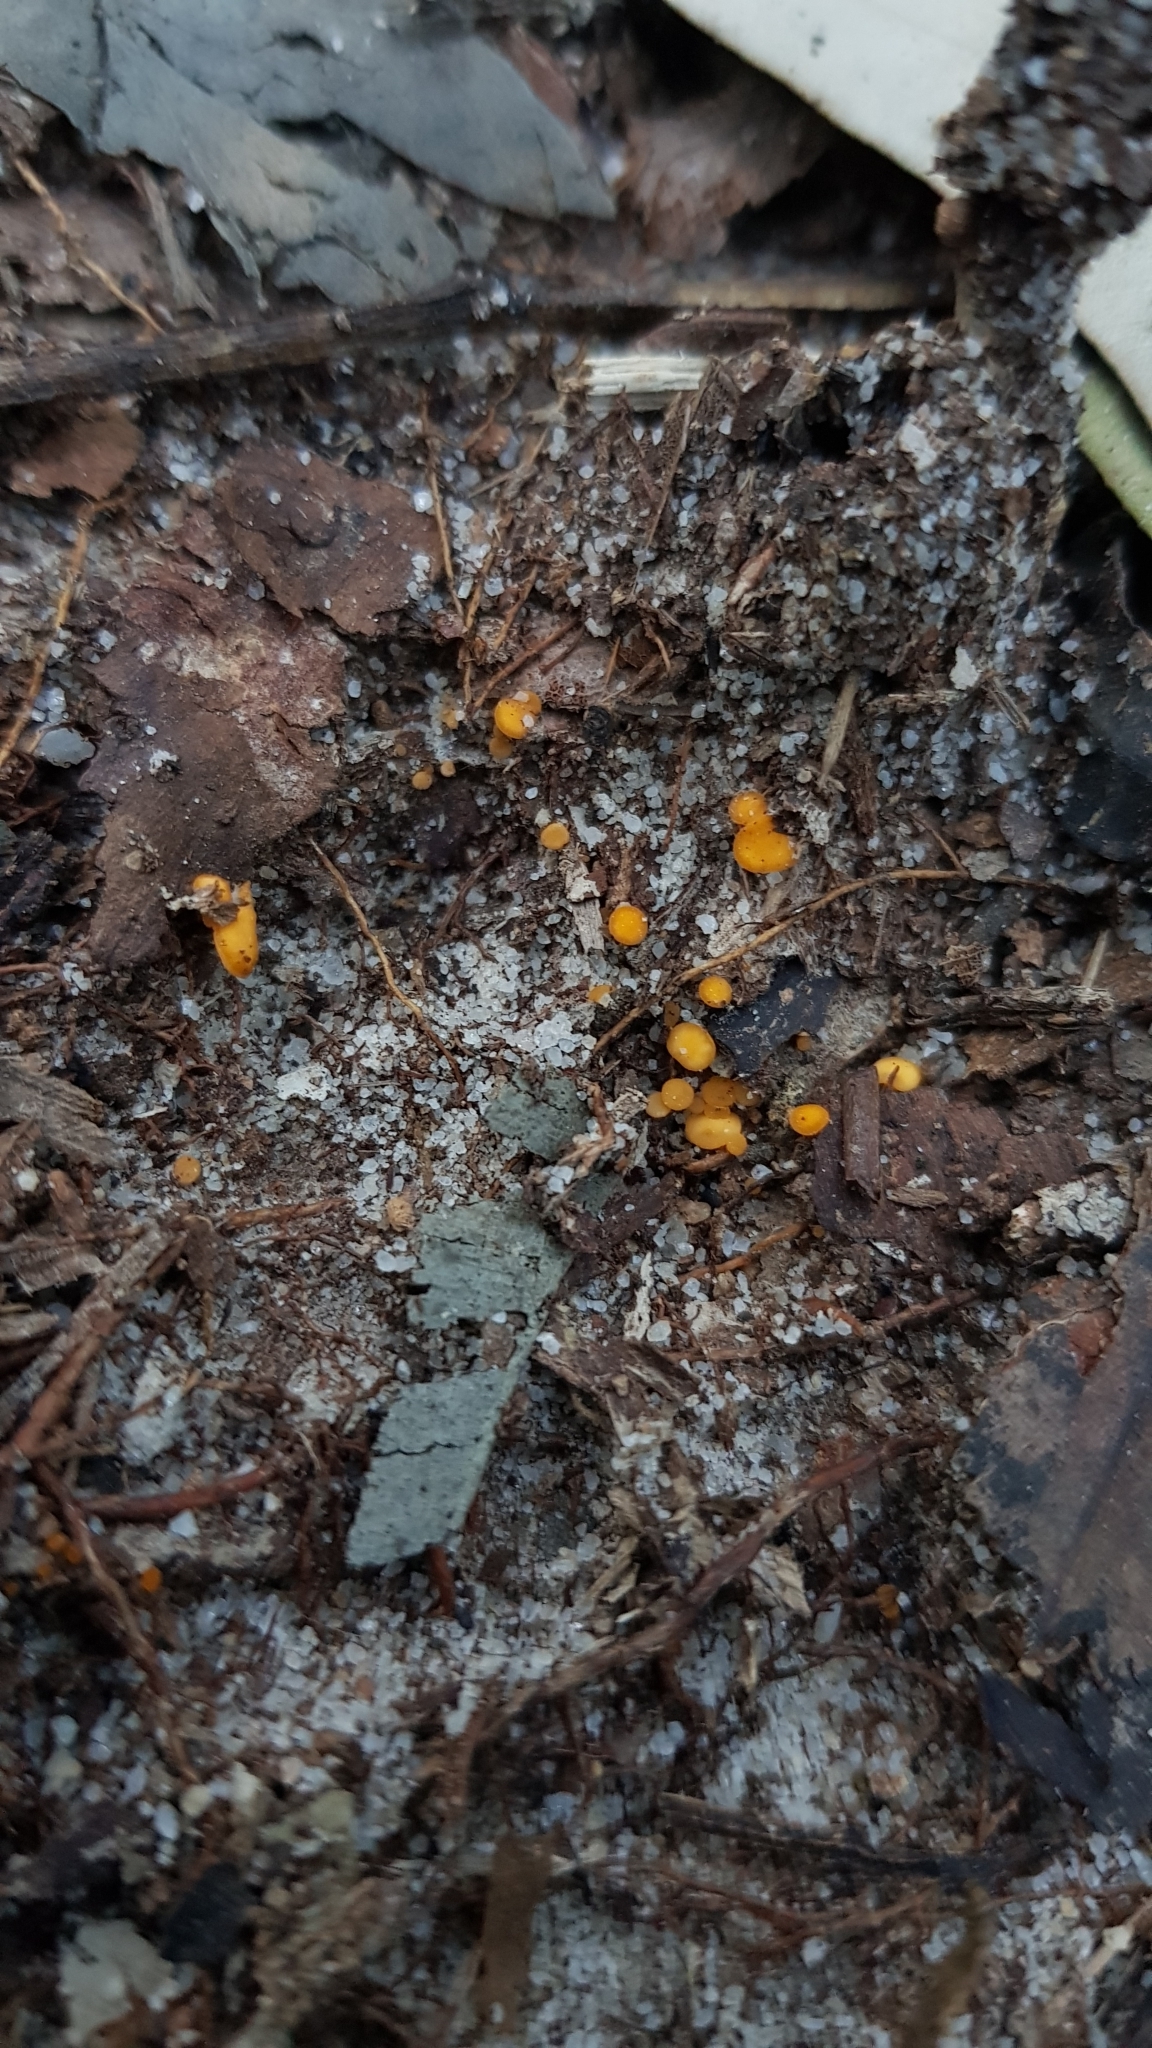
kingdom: Fungi
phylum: Ascomycota
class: Leotiomycetes
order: Helotiales
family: Helotiaceae
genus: Phaeohelotium
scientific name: Phaeohelotium baileyanum
